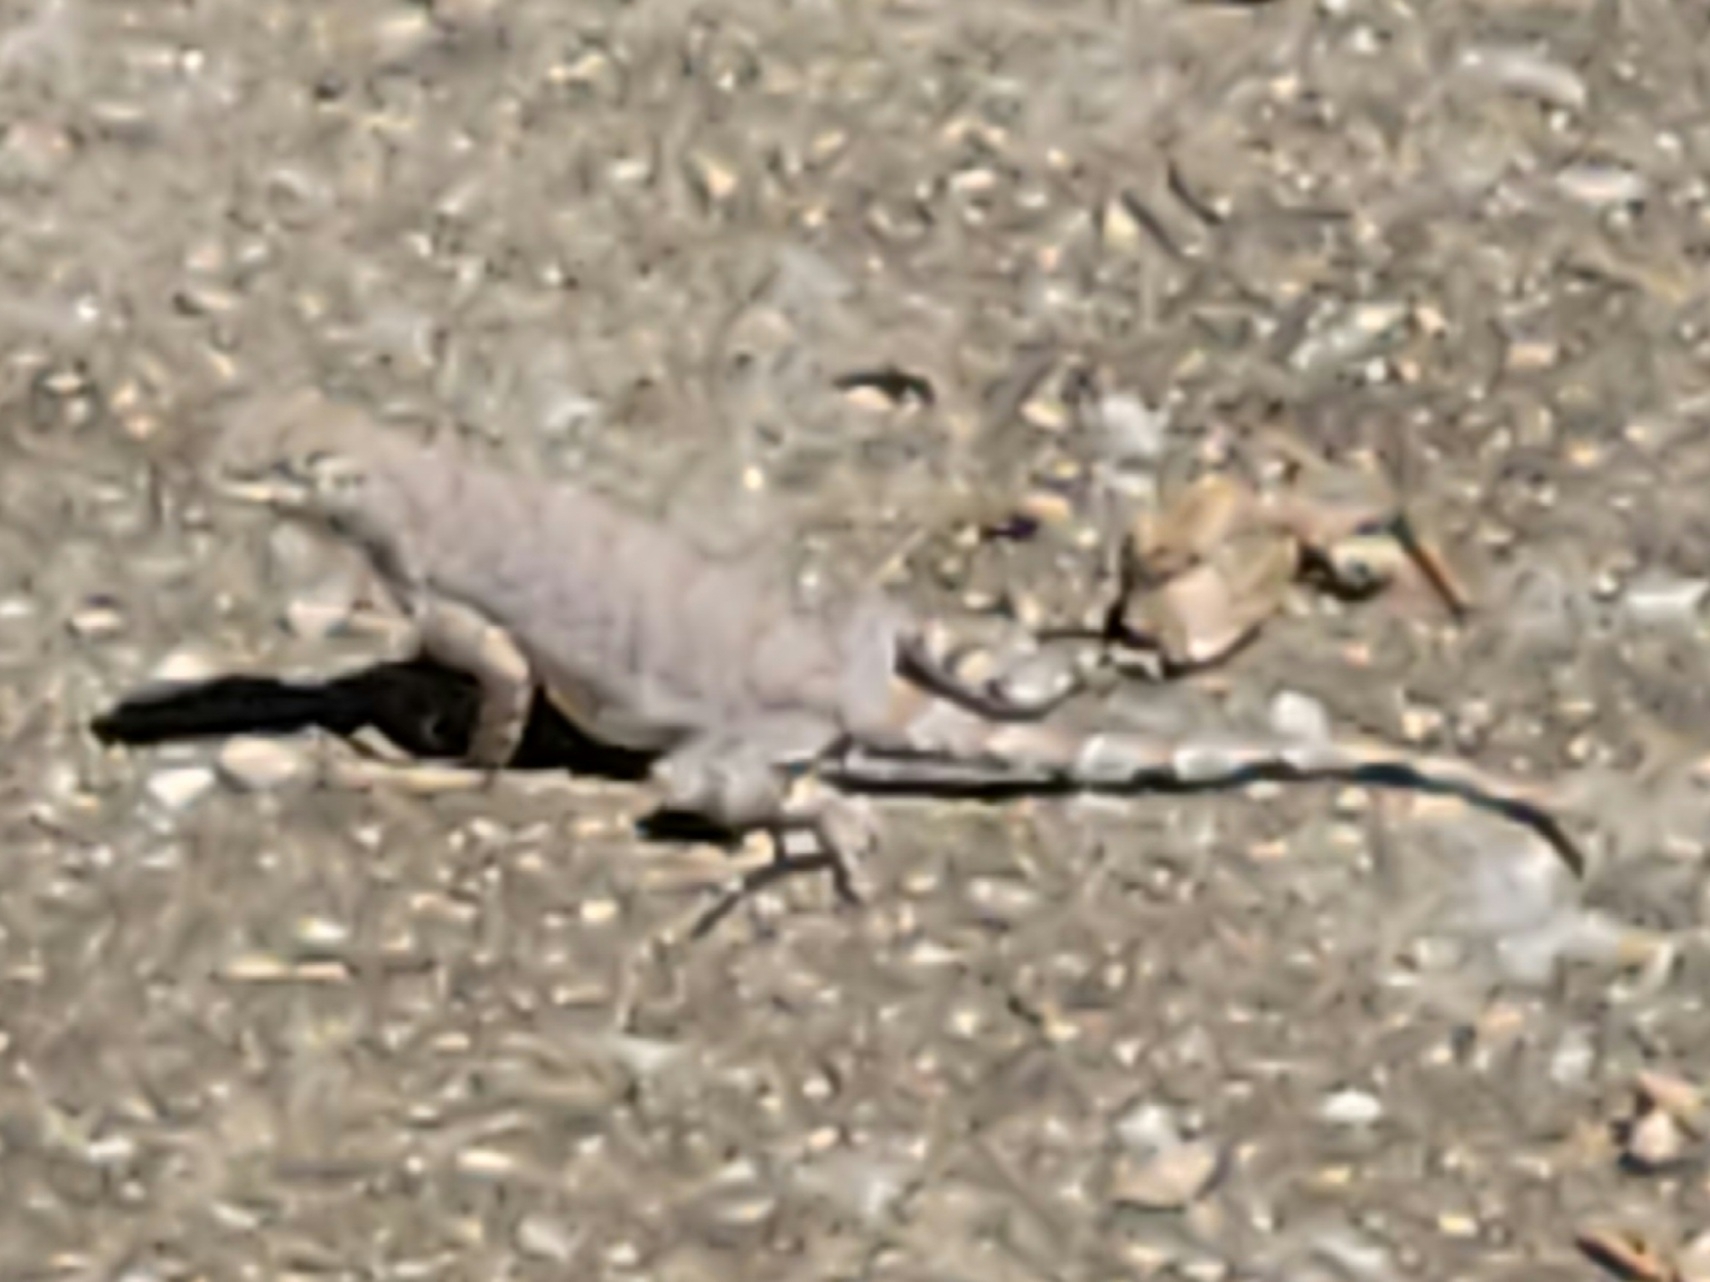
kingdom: Animalia
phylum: Chordata
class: Squamata
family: Phrynosomatidae
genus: Cophosaurus
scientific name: Cophosaurus texanus
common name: Greater earless lizard
